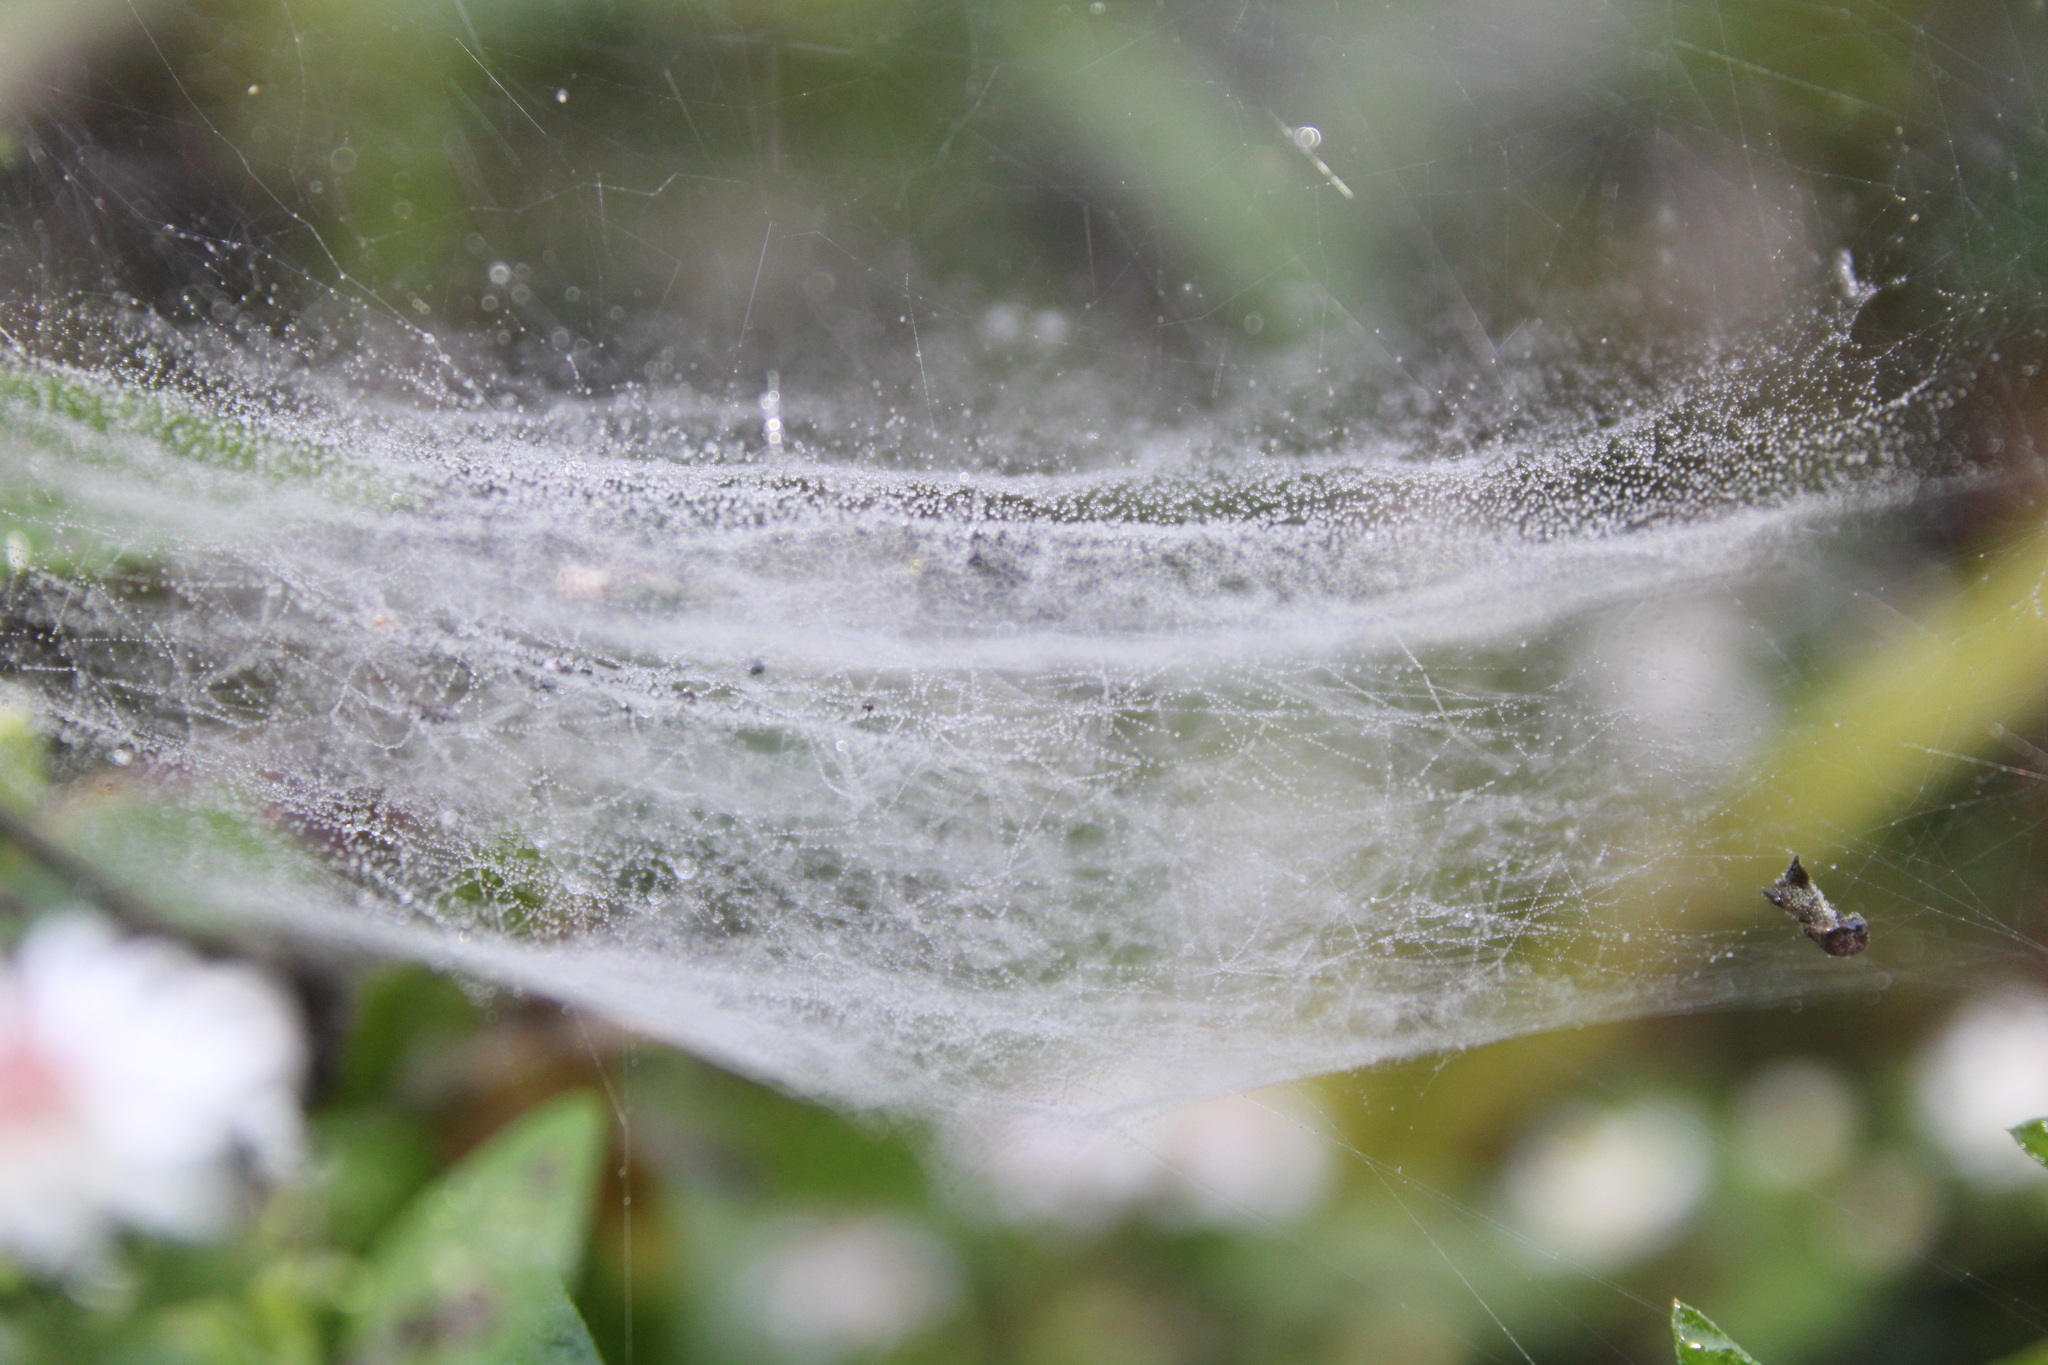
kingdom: Animalia
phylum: Arthropoda
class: Arachnida
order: Araneae
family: Linyphiidae
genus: Frontinella
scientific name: Frontinella pyramitela
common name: Bowl-and-doily spider
